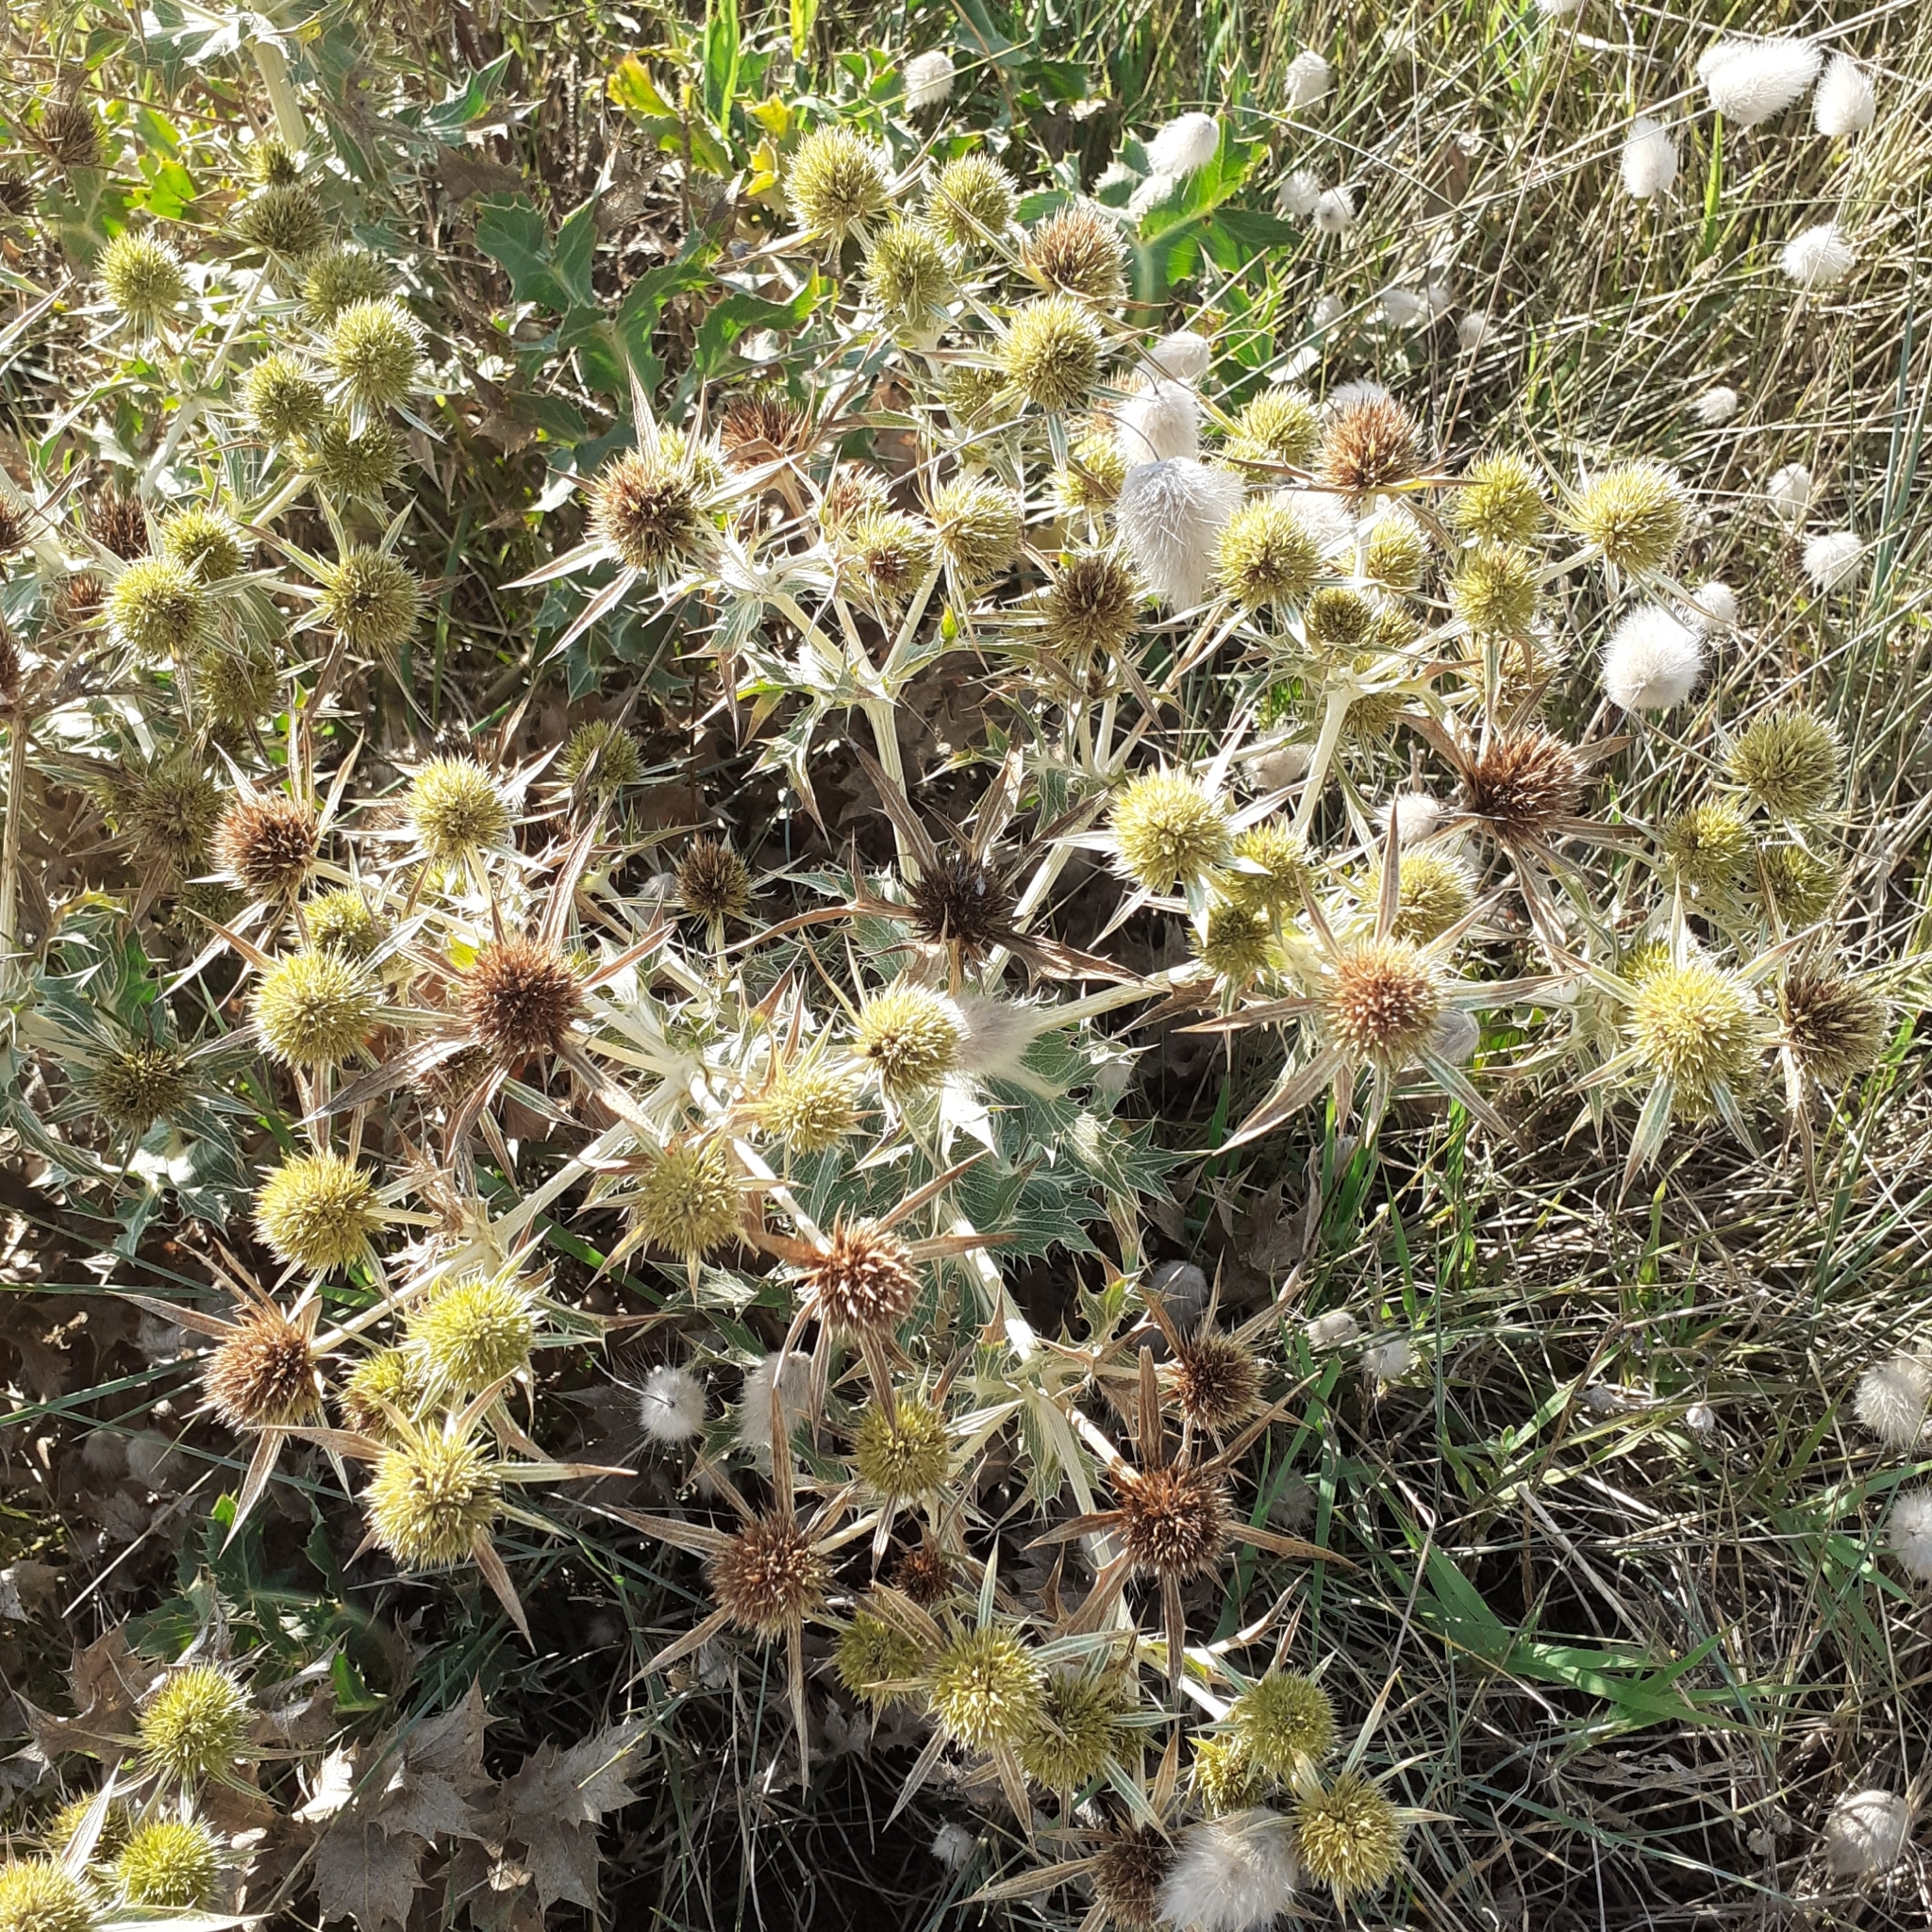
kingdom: Plantae
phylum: Tracheophyta
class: Magnoliopsida
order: Apiales
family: Apiaceae
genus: Eryngium
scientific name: Eryngium campestre
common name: Field eryngo
